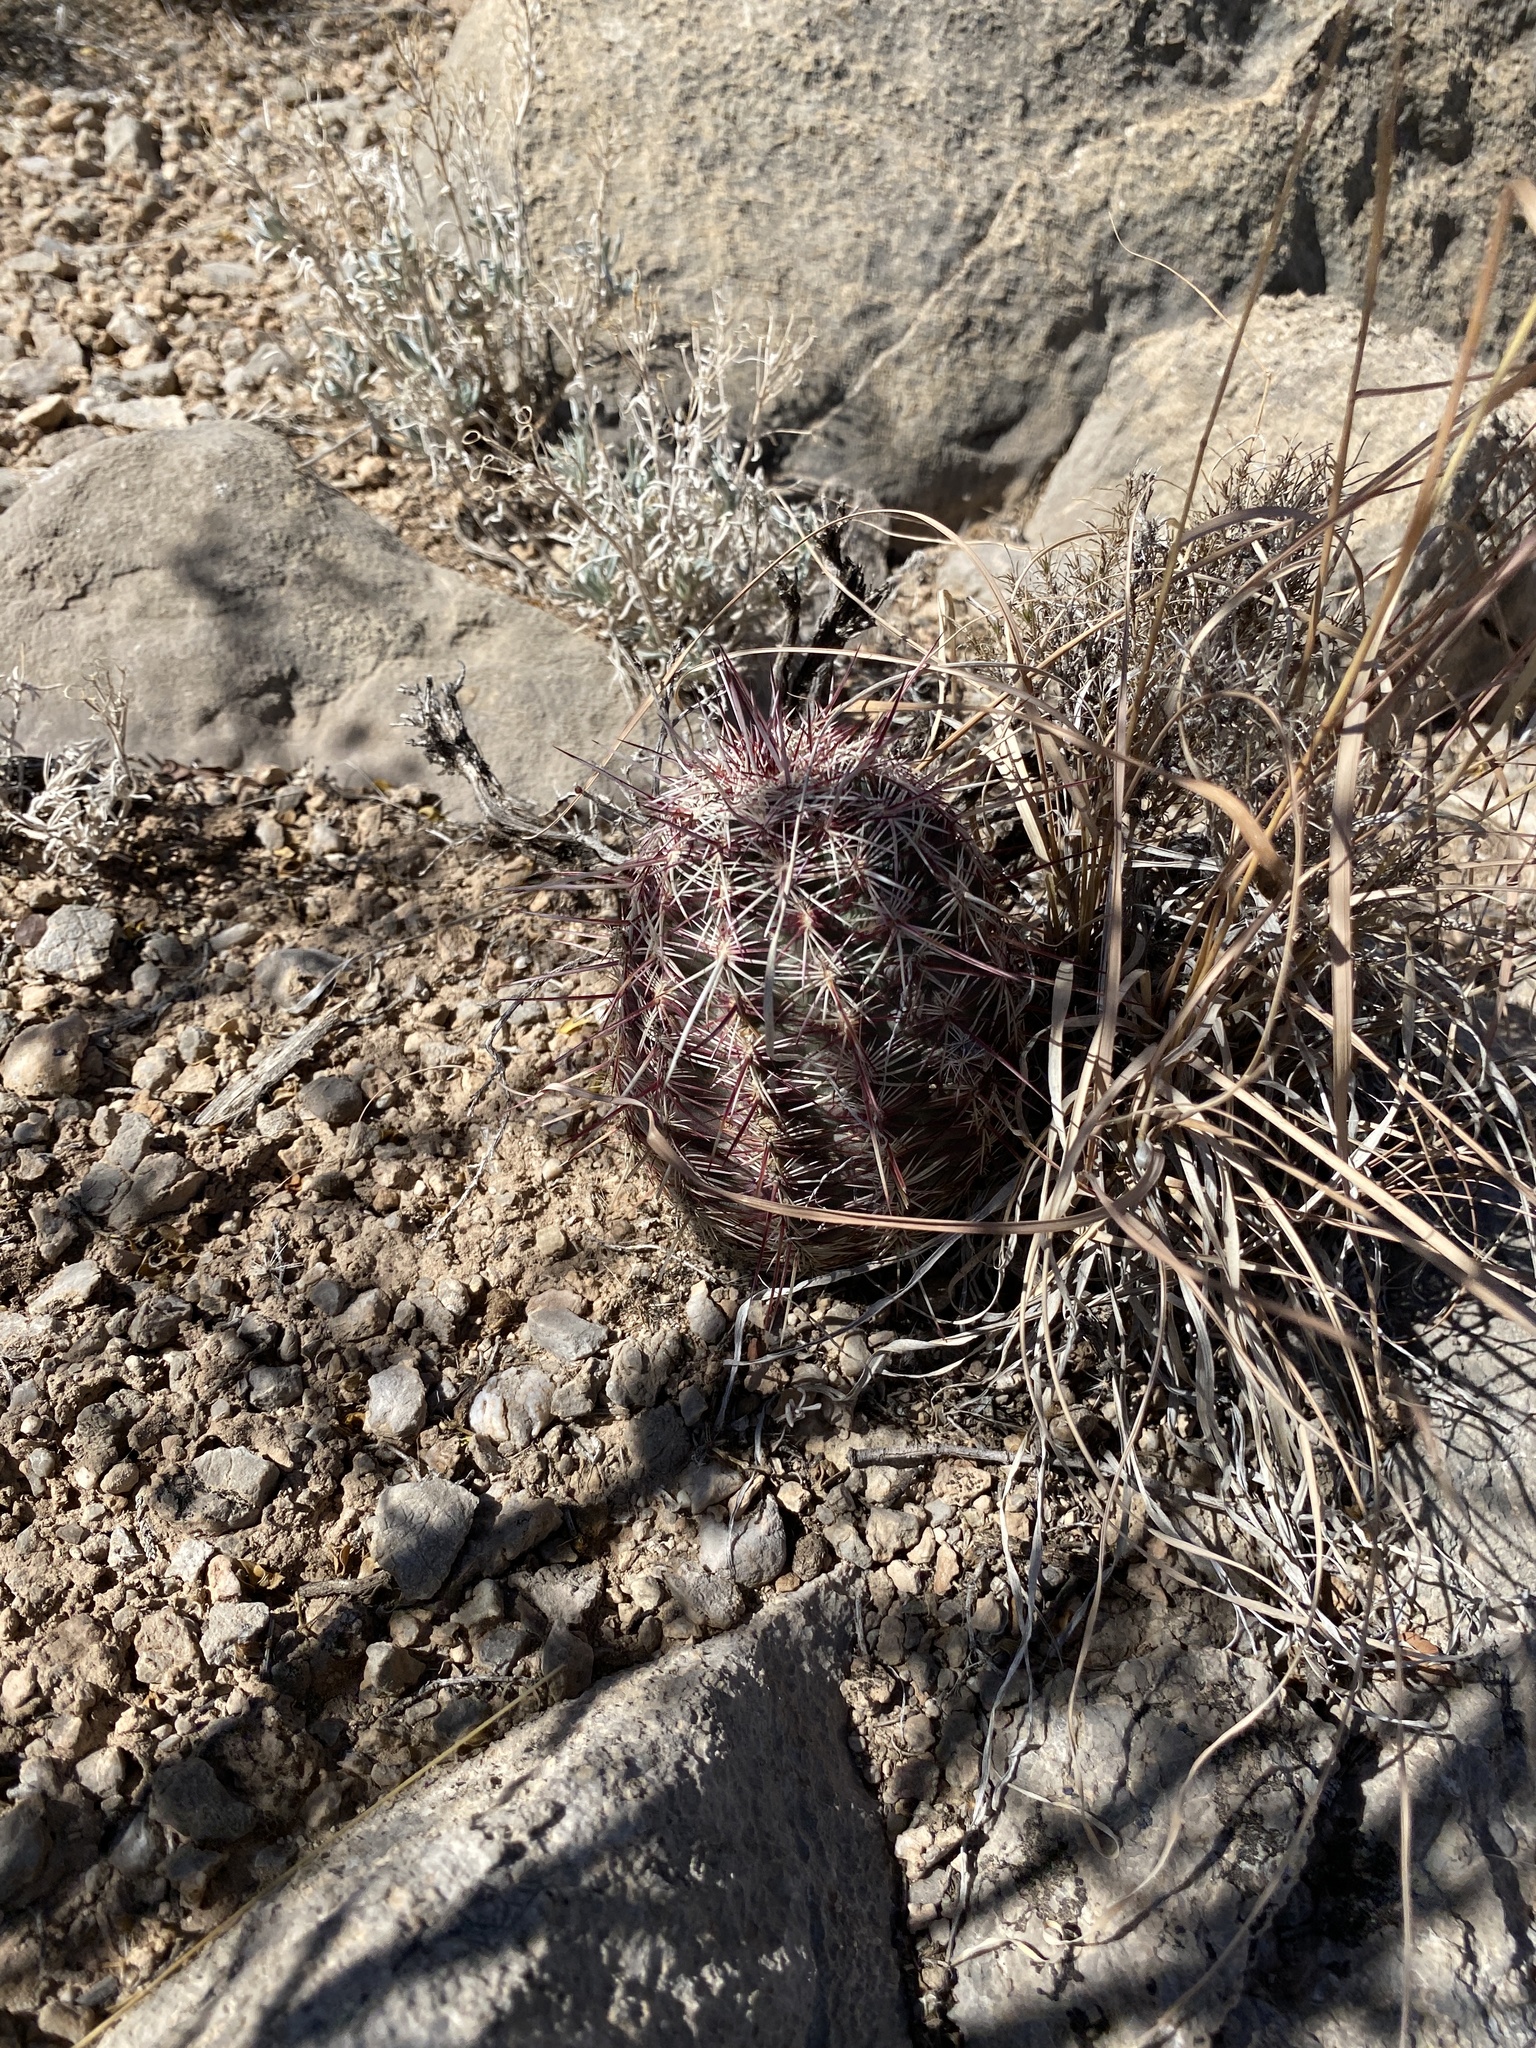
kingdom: Plantae
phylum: Tracheophyta
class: Magnoliopsida
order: Caryophyllales
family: Cactaceae
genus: Echinocereus
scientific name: Echinocereus viridiflorus
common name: Nylon hedgehog cactus
